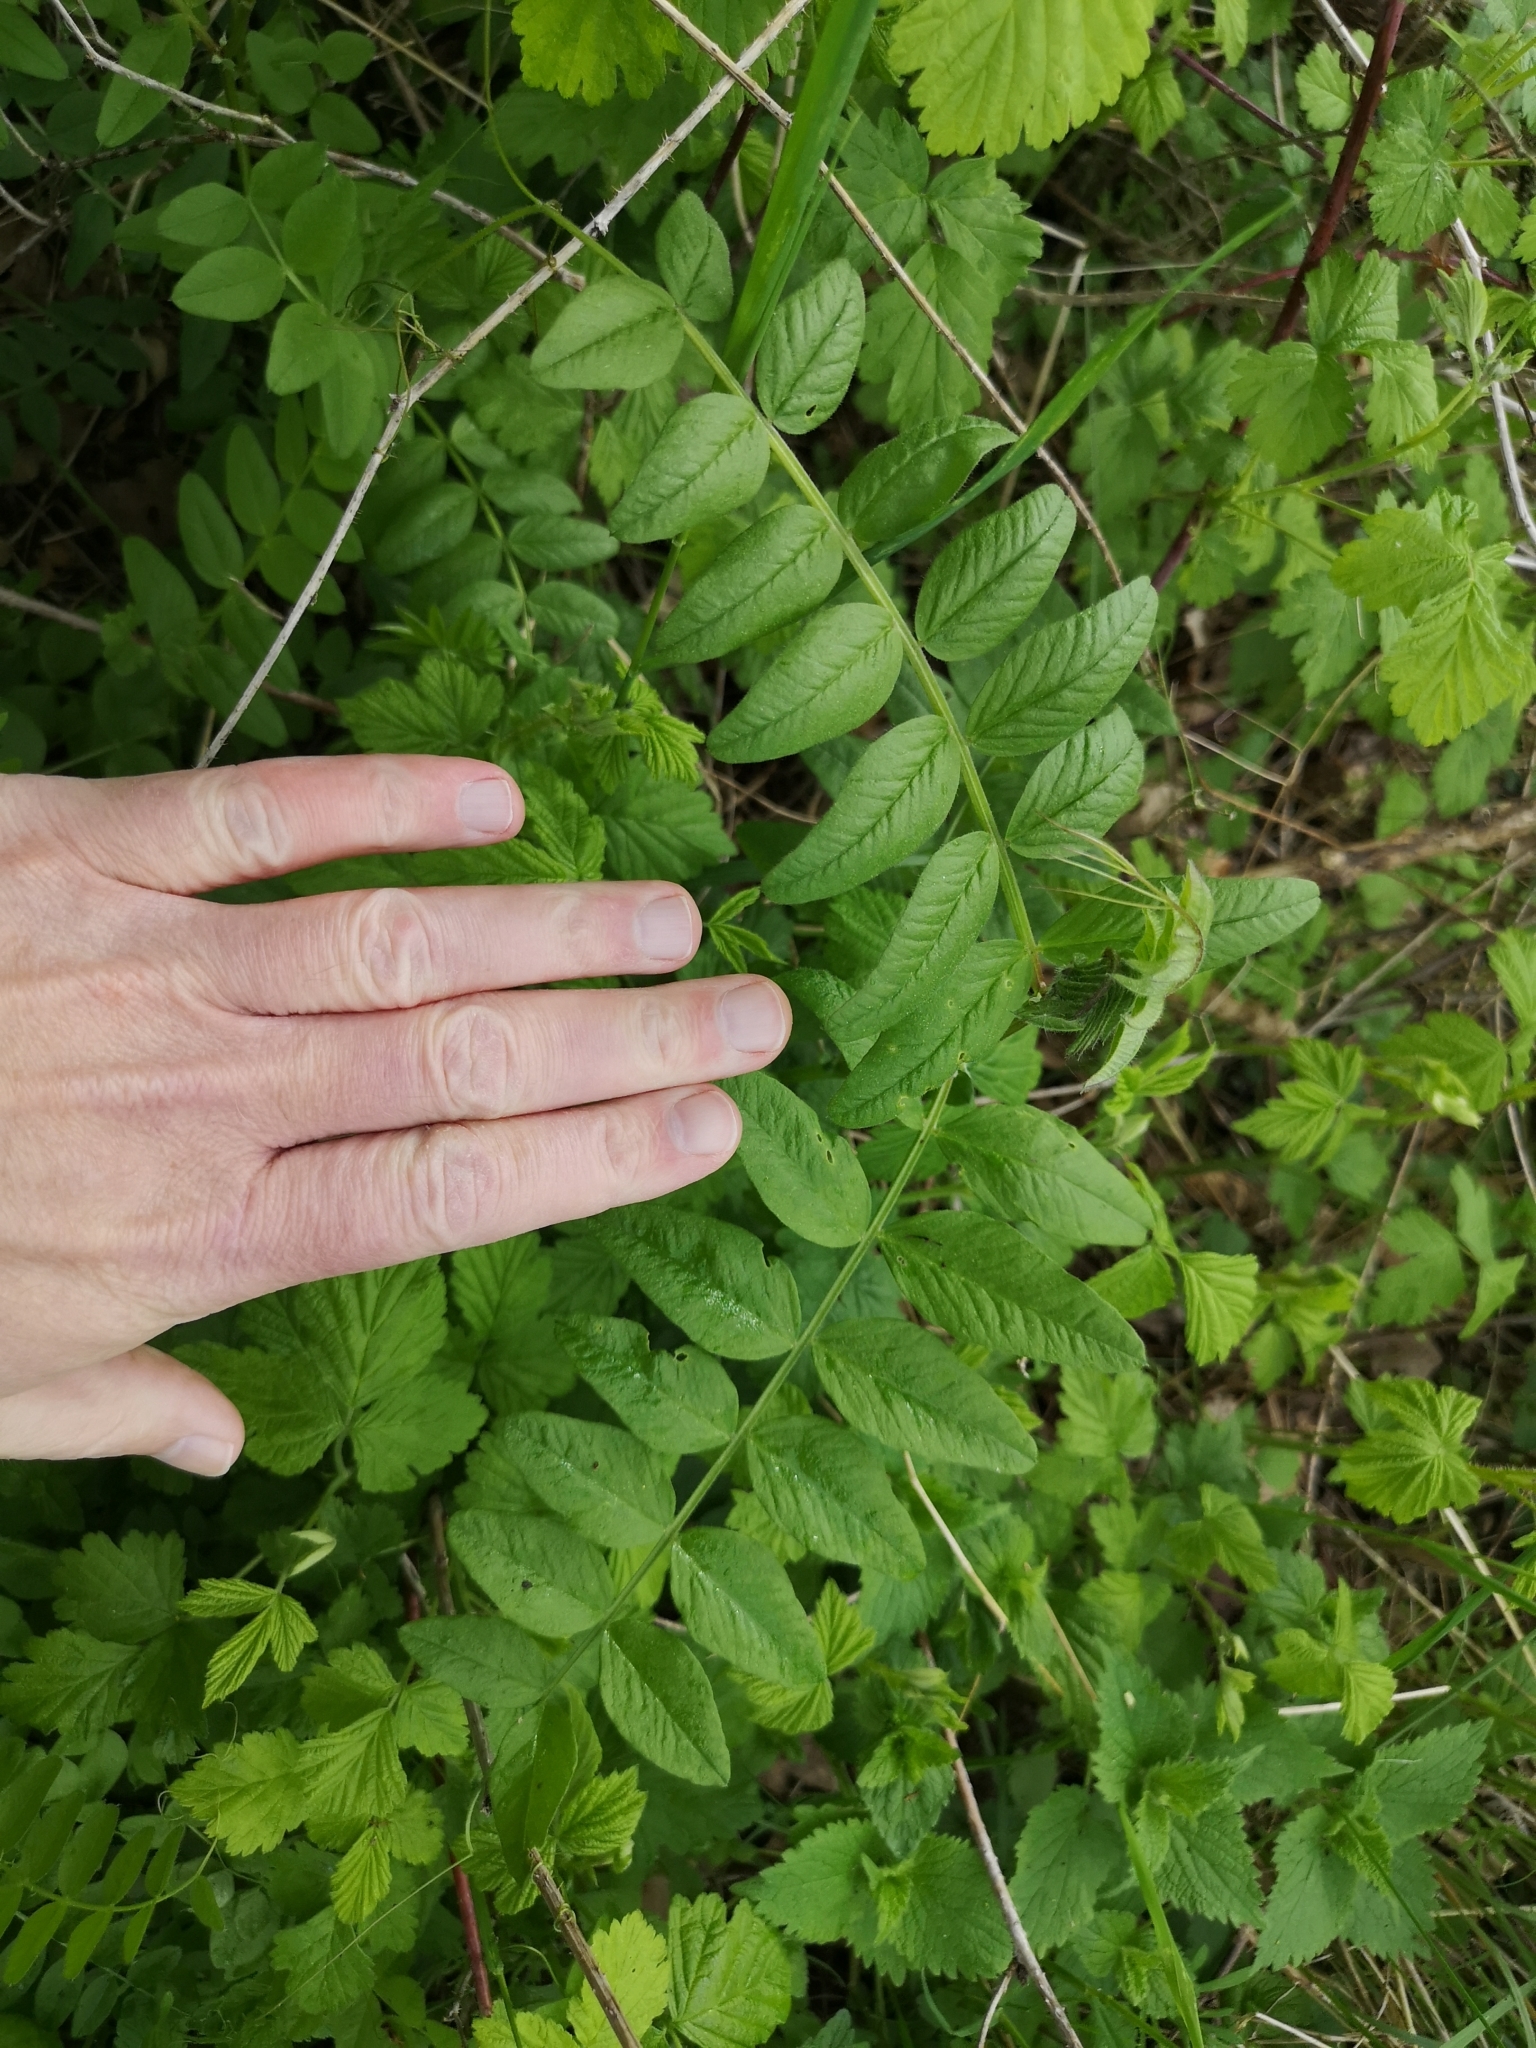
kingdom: Plantae
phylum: Tracheophyta
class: Magnoliopsida
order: Fabales
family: Fabaceae
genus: Vicia
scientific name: Vicia sepium
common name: Bush vetch
